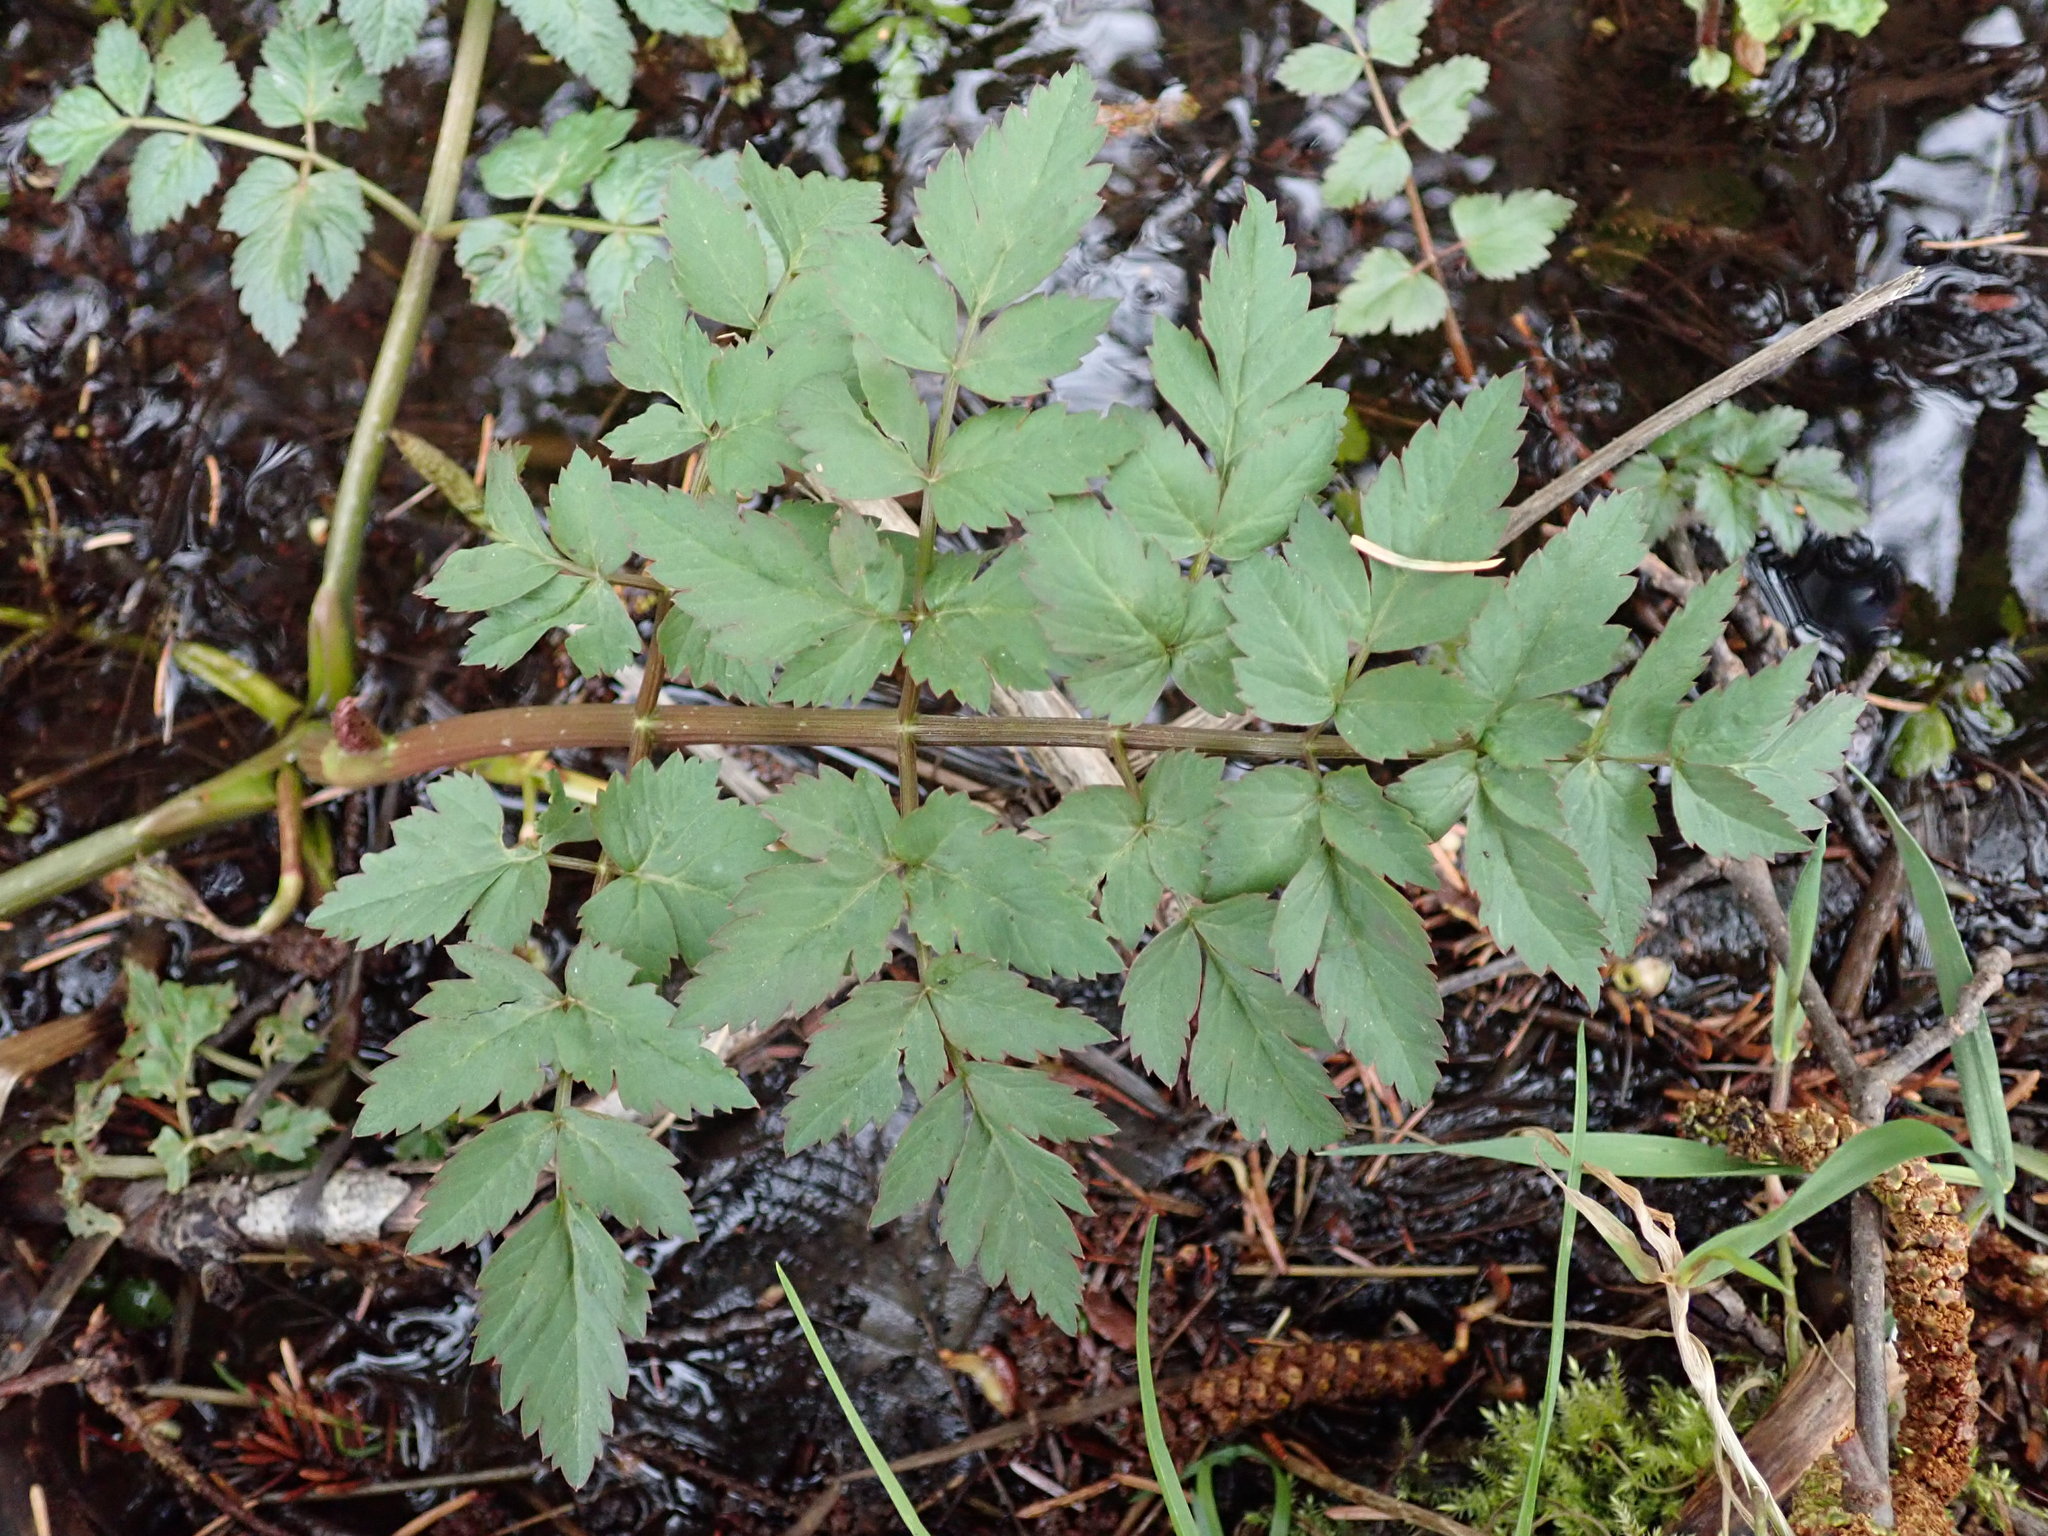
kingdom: Plantae
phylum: Tracheophyta
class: Magnoliopsida
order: Apiales
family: Apiaceae
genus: Oenanthe
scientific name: Oenanthe sarmentosa
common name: American water-parsley
